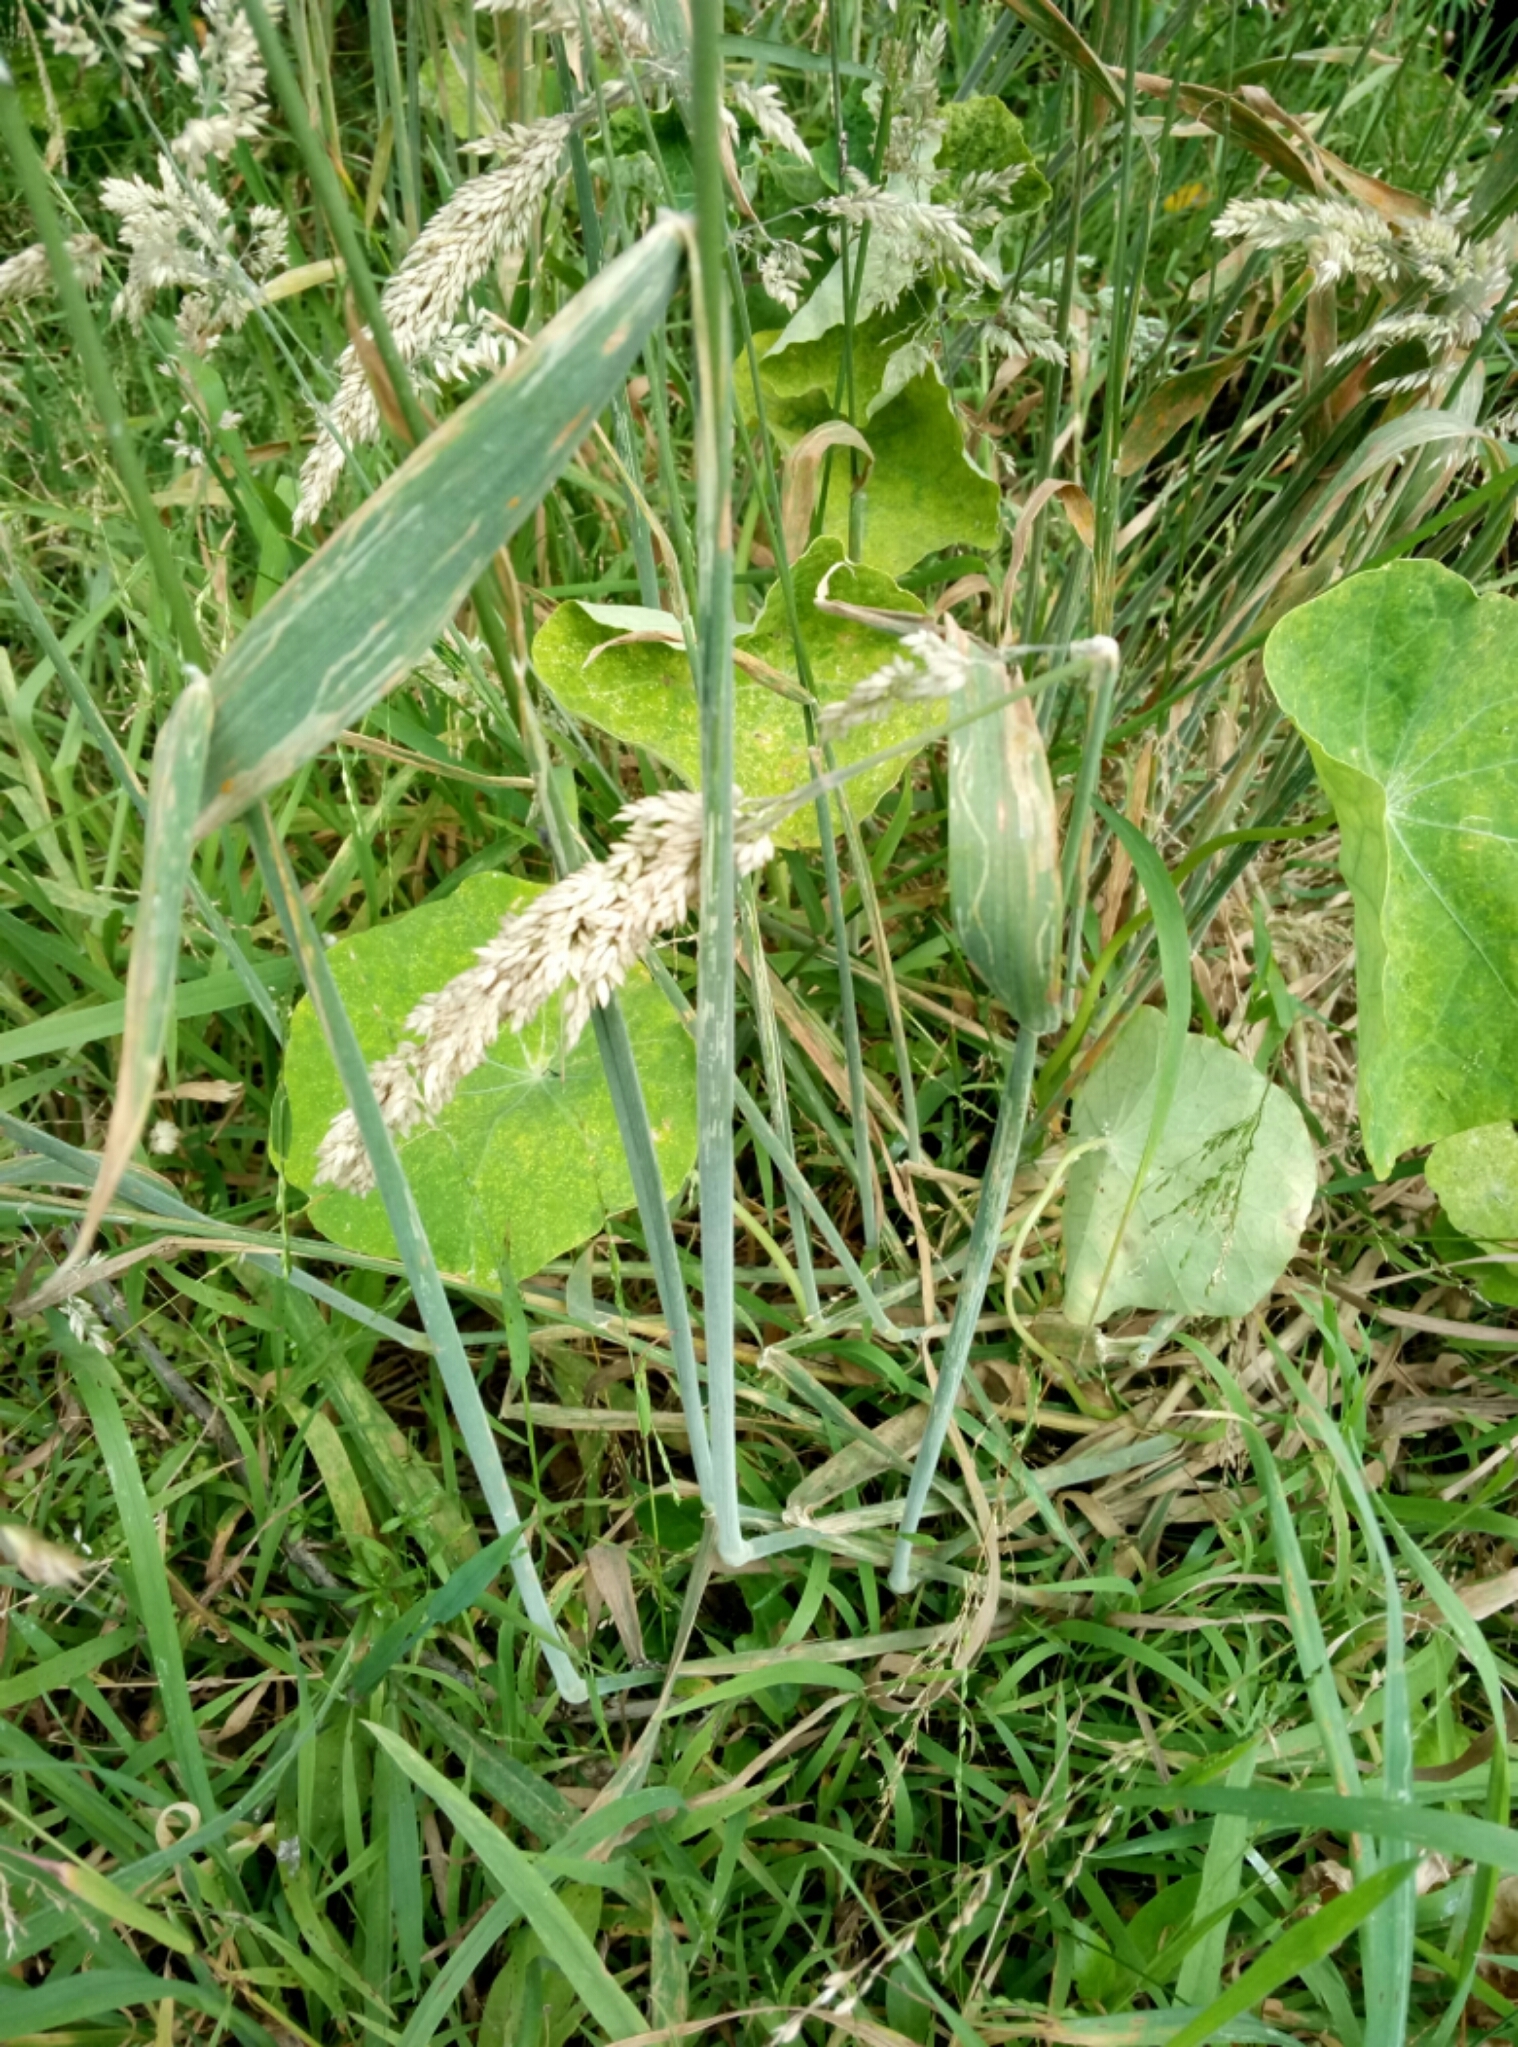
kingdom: Plantae
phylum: Tracheophyta
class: Liliopsida
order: Poales
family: Poaceae
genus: Holcus
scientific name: Holcus lanatus
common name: Yorkshire-fog
